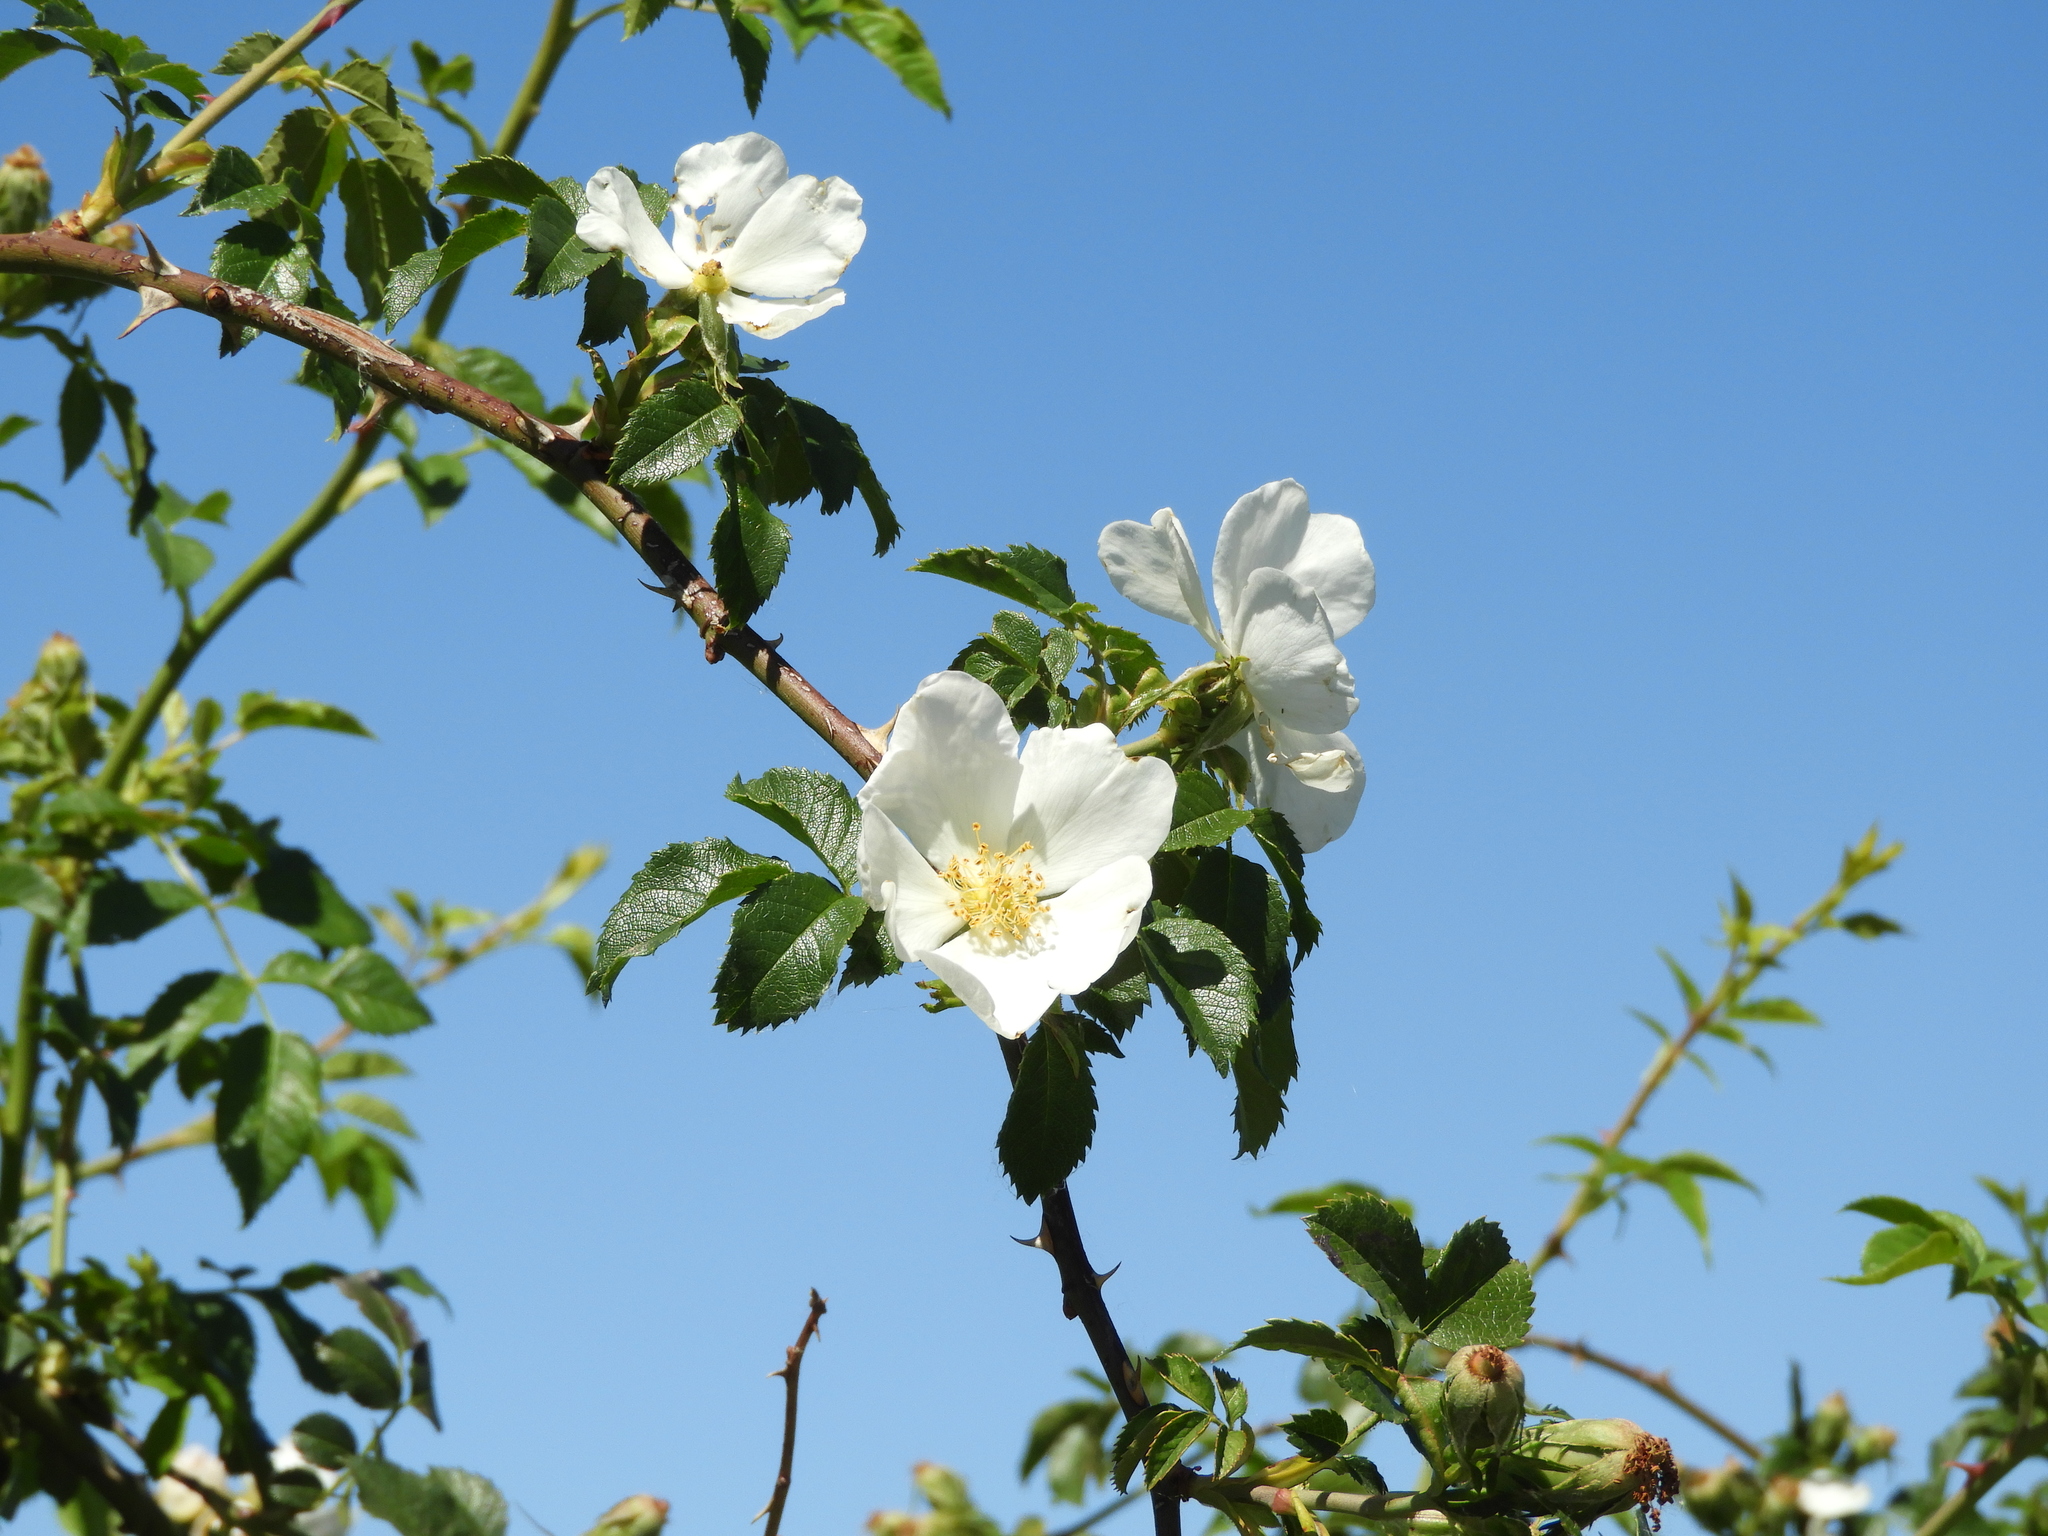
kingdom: Plantae
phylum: Tracheophyta
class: Magnoliopsida
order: Rosales
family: Rosaceae
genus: Rosa
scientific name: Rosa canina
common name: Dog rose
